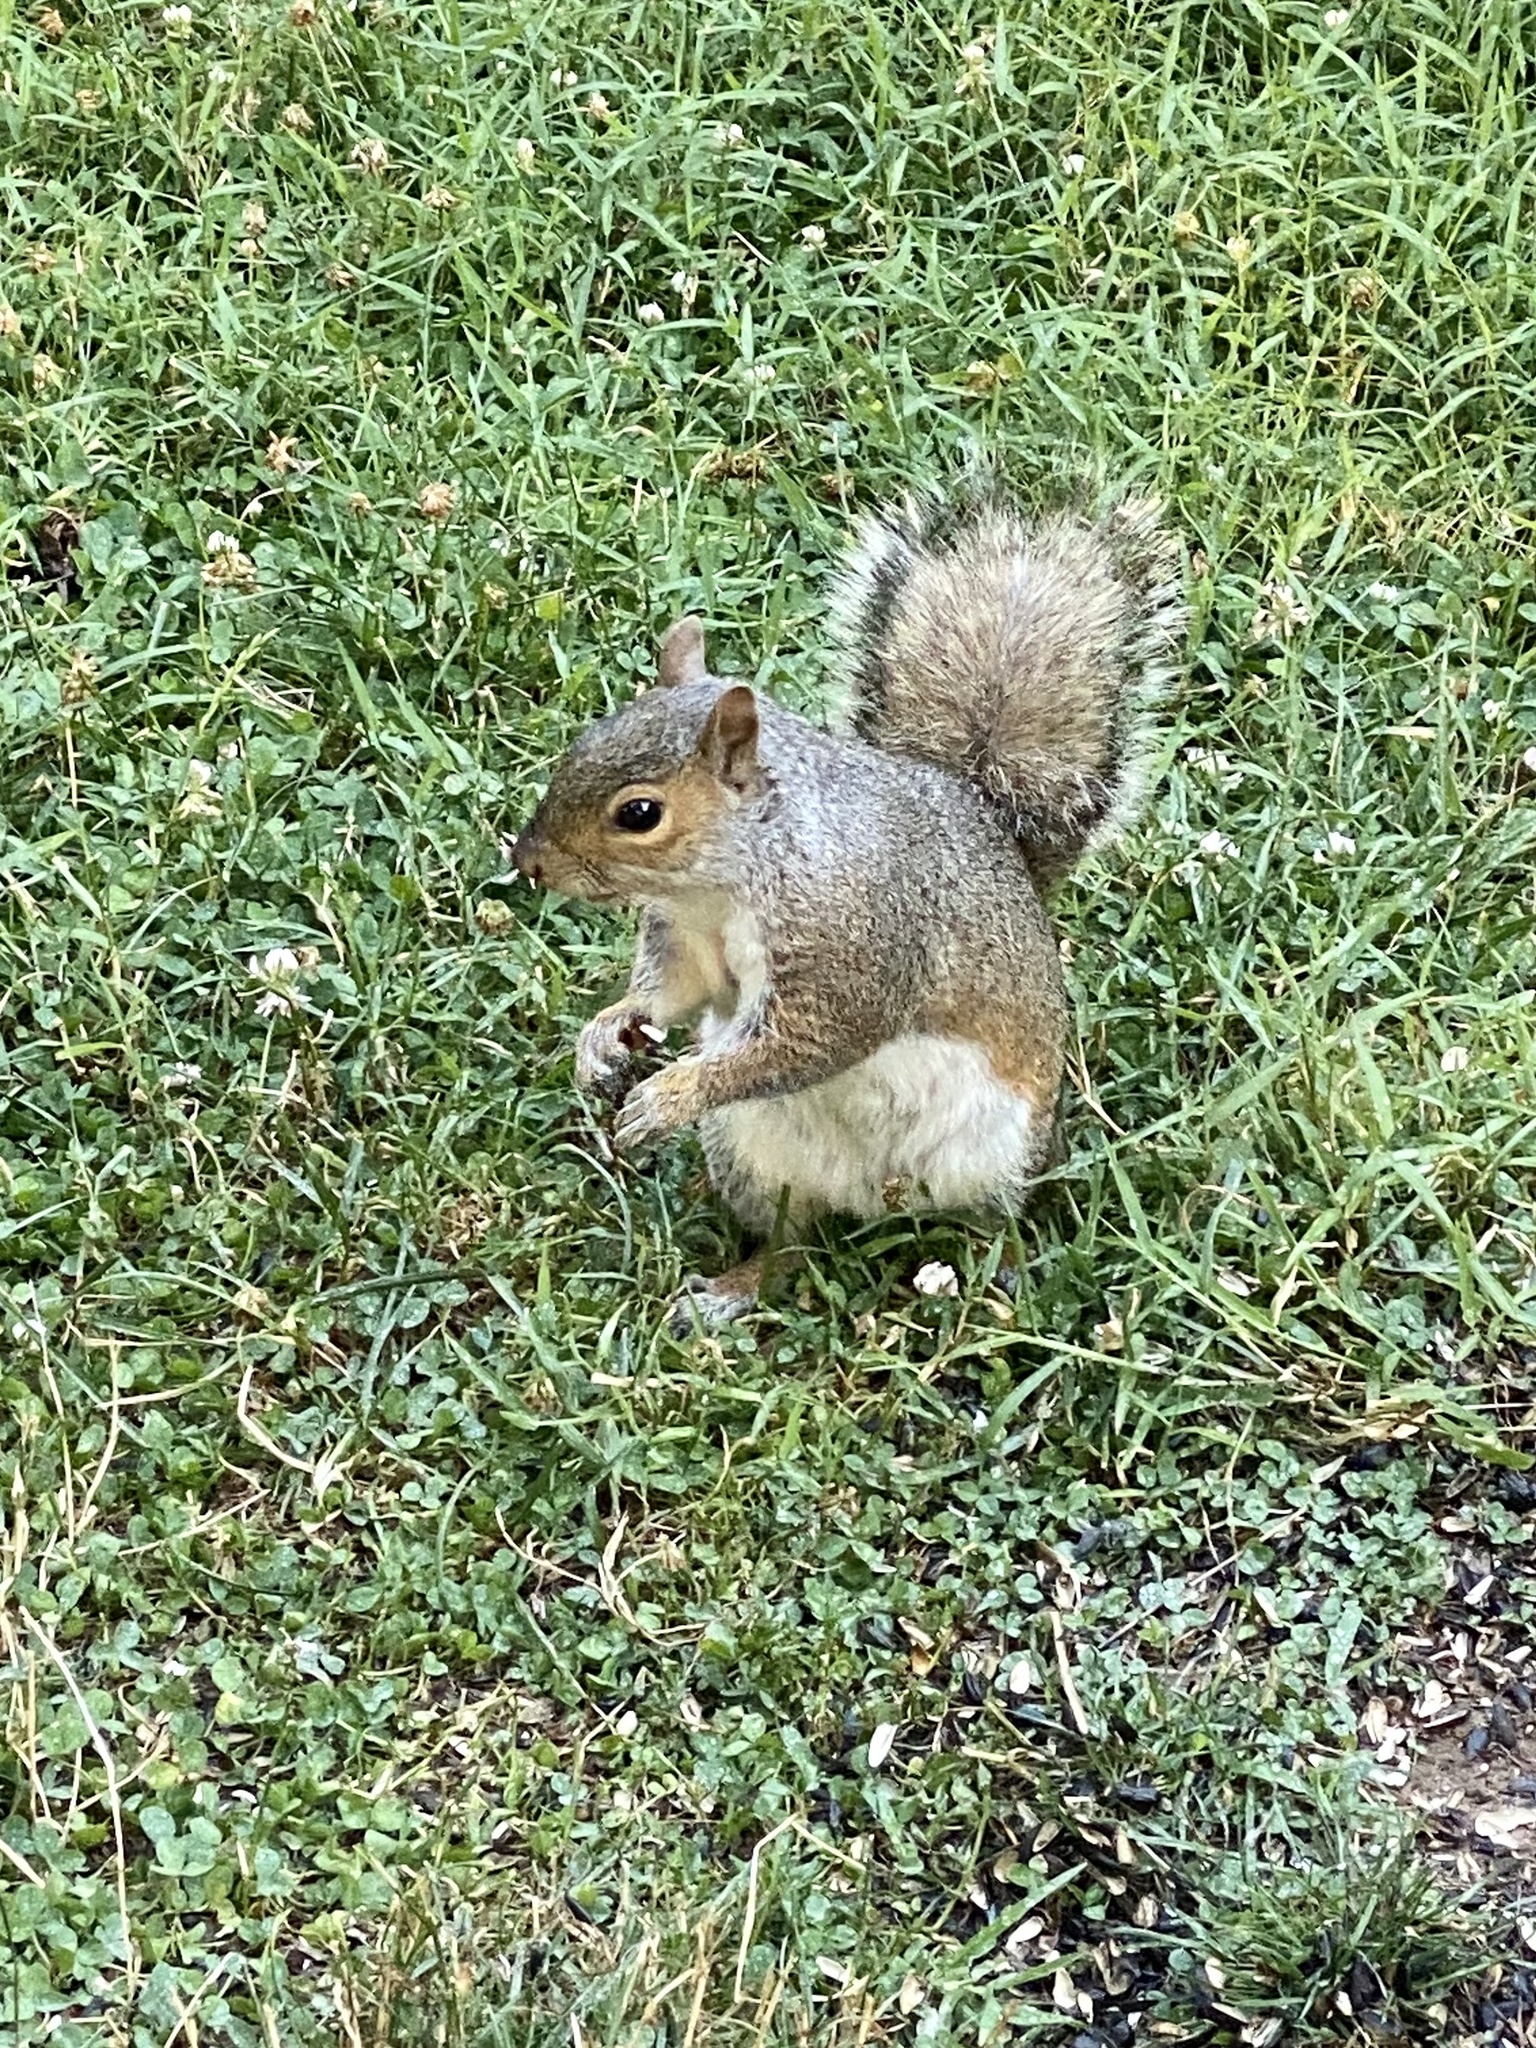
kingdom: Animalia
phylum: Chordata
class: Mammalia
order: Rodentia
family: Sciuridae
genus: Sciurus
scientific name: Sciurus carolinensis
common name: Eastern gray squirrel
